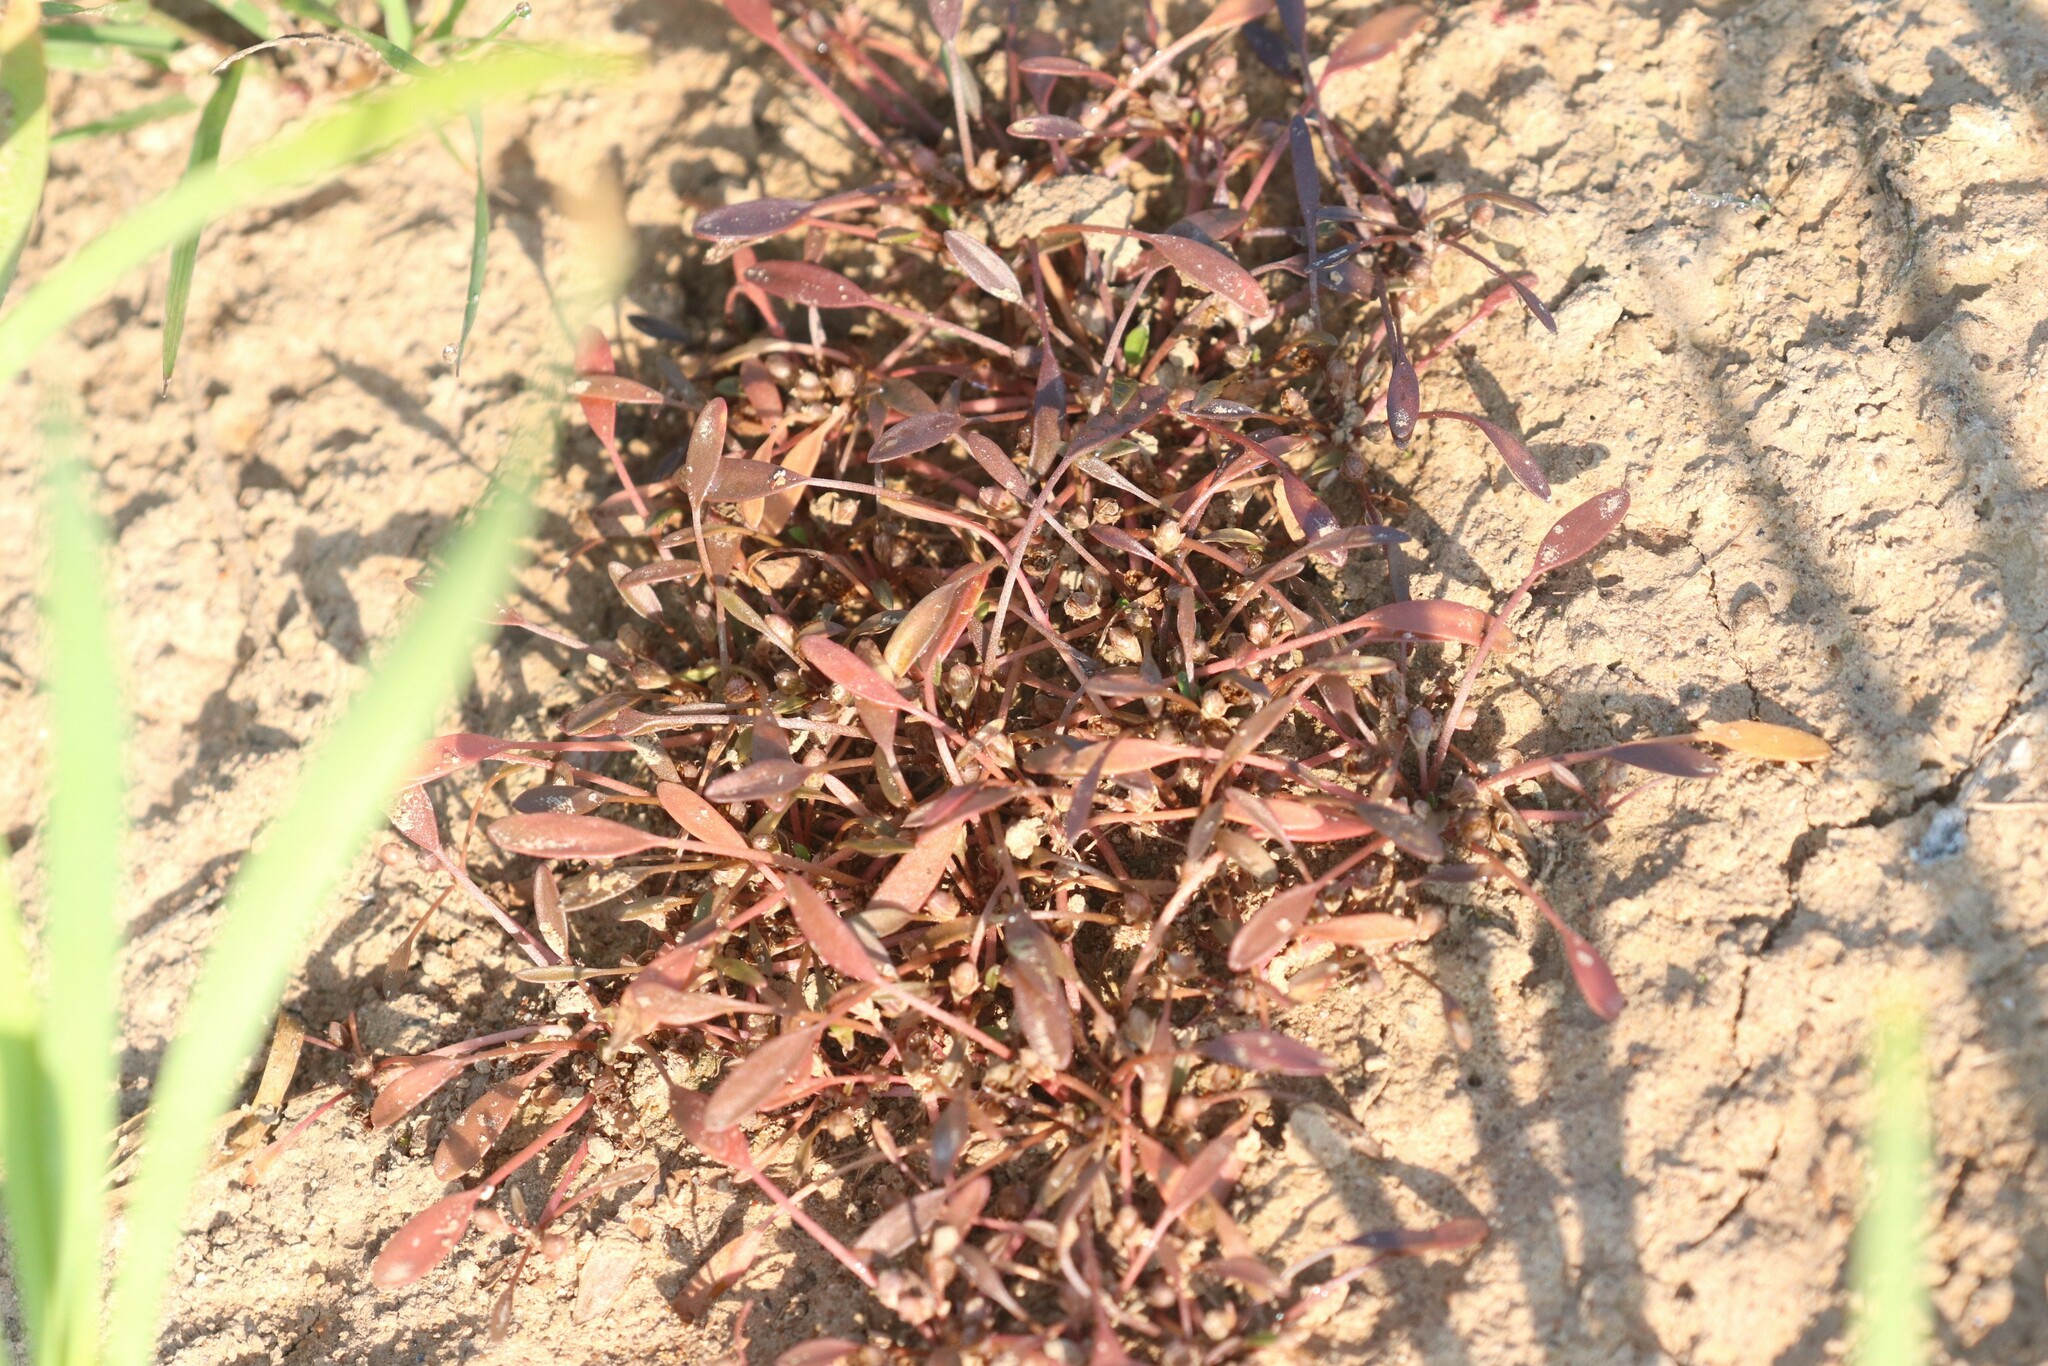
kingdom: Plantae
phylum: Tracheophyta
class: Magnoliopsida
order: Lamiales
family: Scrophulariaceae
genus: Limosella
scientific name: Limosella aquatica
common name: Mudwort
